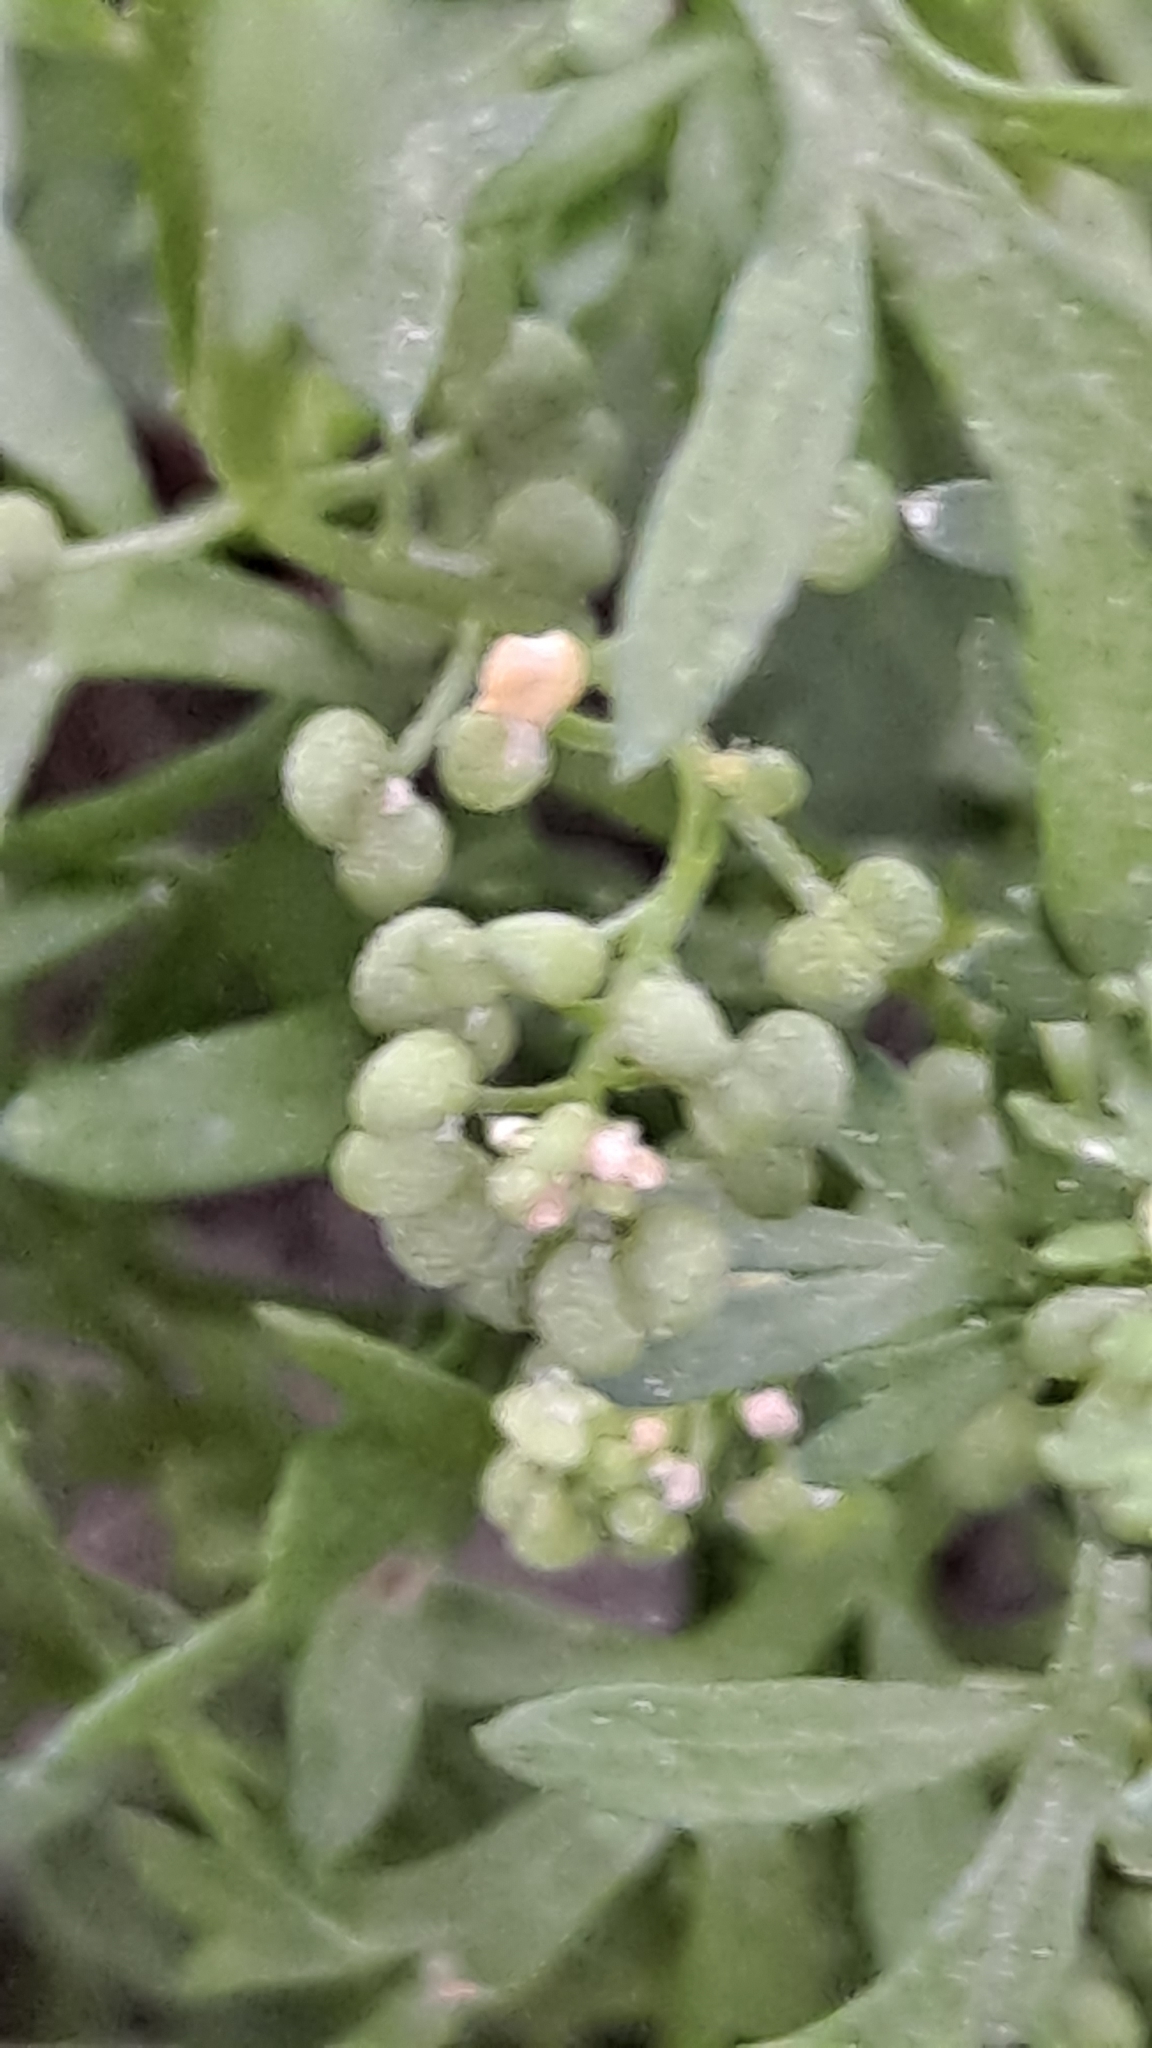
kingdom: Plantae
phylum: Tracheophyta
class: Magnoliopsida
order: Brassicales
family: Brassicaceae
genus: Lepidium
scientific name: Lepidium didymum
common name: Lesser swinecress
